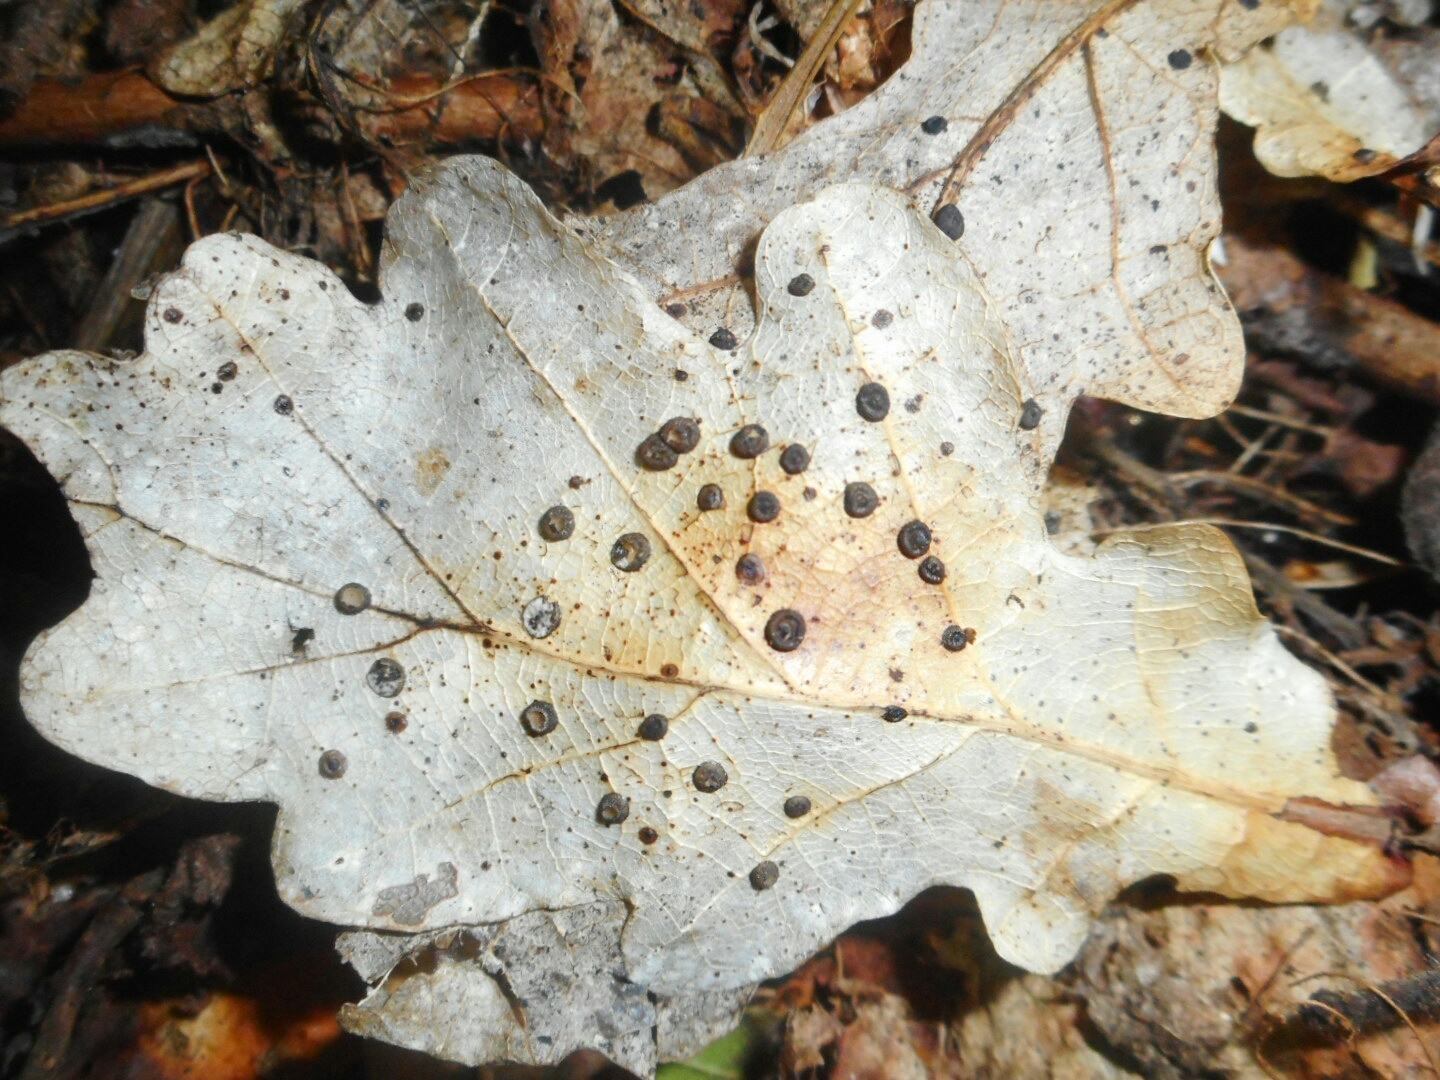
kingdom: Fungi
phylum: Ascomycota
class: Leotiomycetes
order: Rhytismatales
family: Rhytismataceae
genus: Coccomyces
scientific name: Coccomyces coronatus
